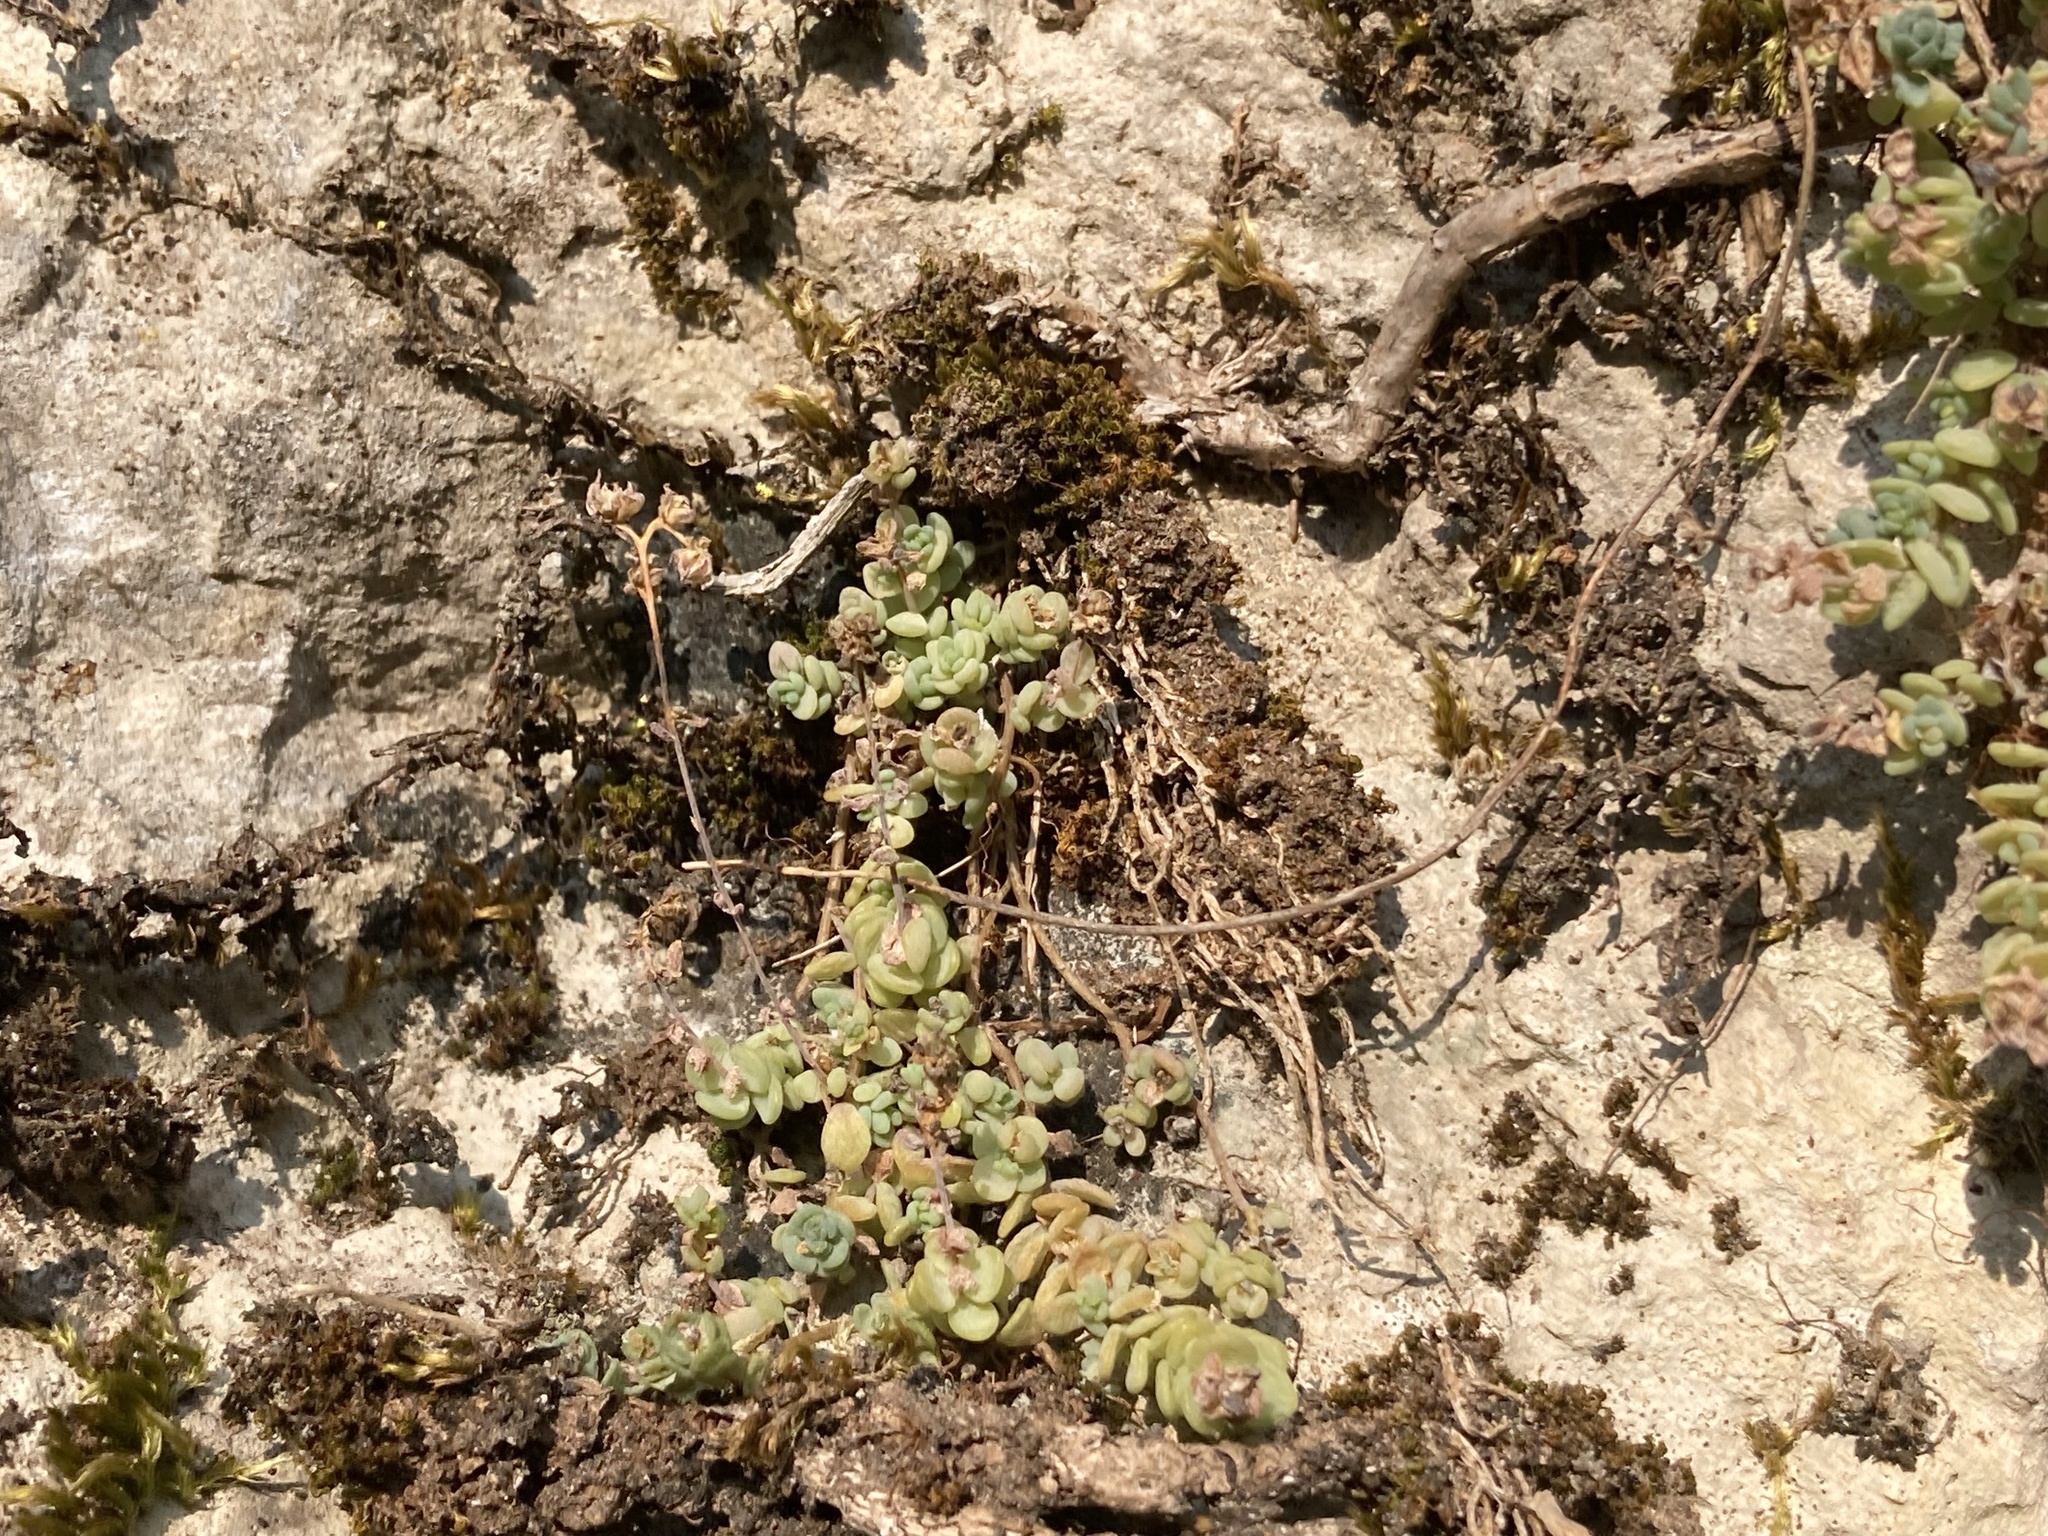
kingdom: Plantae
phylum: Tracheophyta
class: Magnoliopsida
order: Saxifragales
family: Crassulaceae
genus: Sedum
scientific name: Sedum dasyphyllum
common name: Thick-leaf stonecrop
